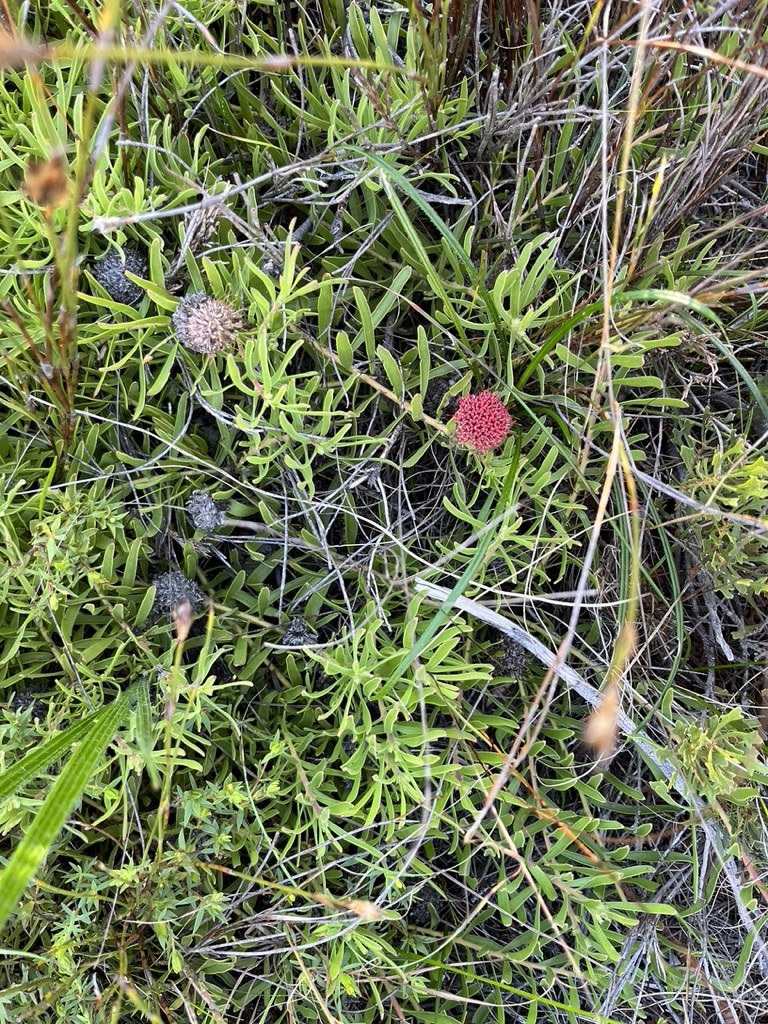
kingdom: Plantae
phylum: Tracheophyta
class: Magnoliopsida
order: Proteales
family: Proteaceae
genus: Leucospermum
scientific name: Leucospermum pedunculatum
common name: White-trailing pincushion
